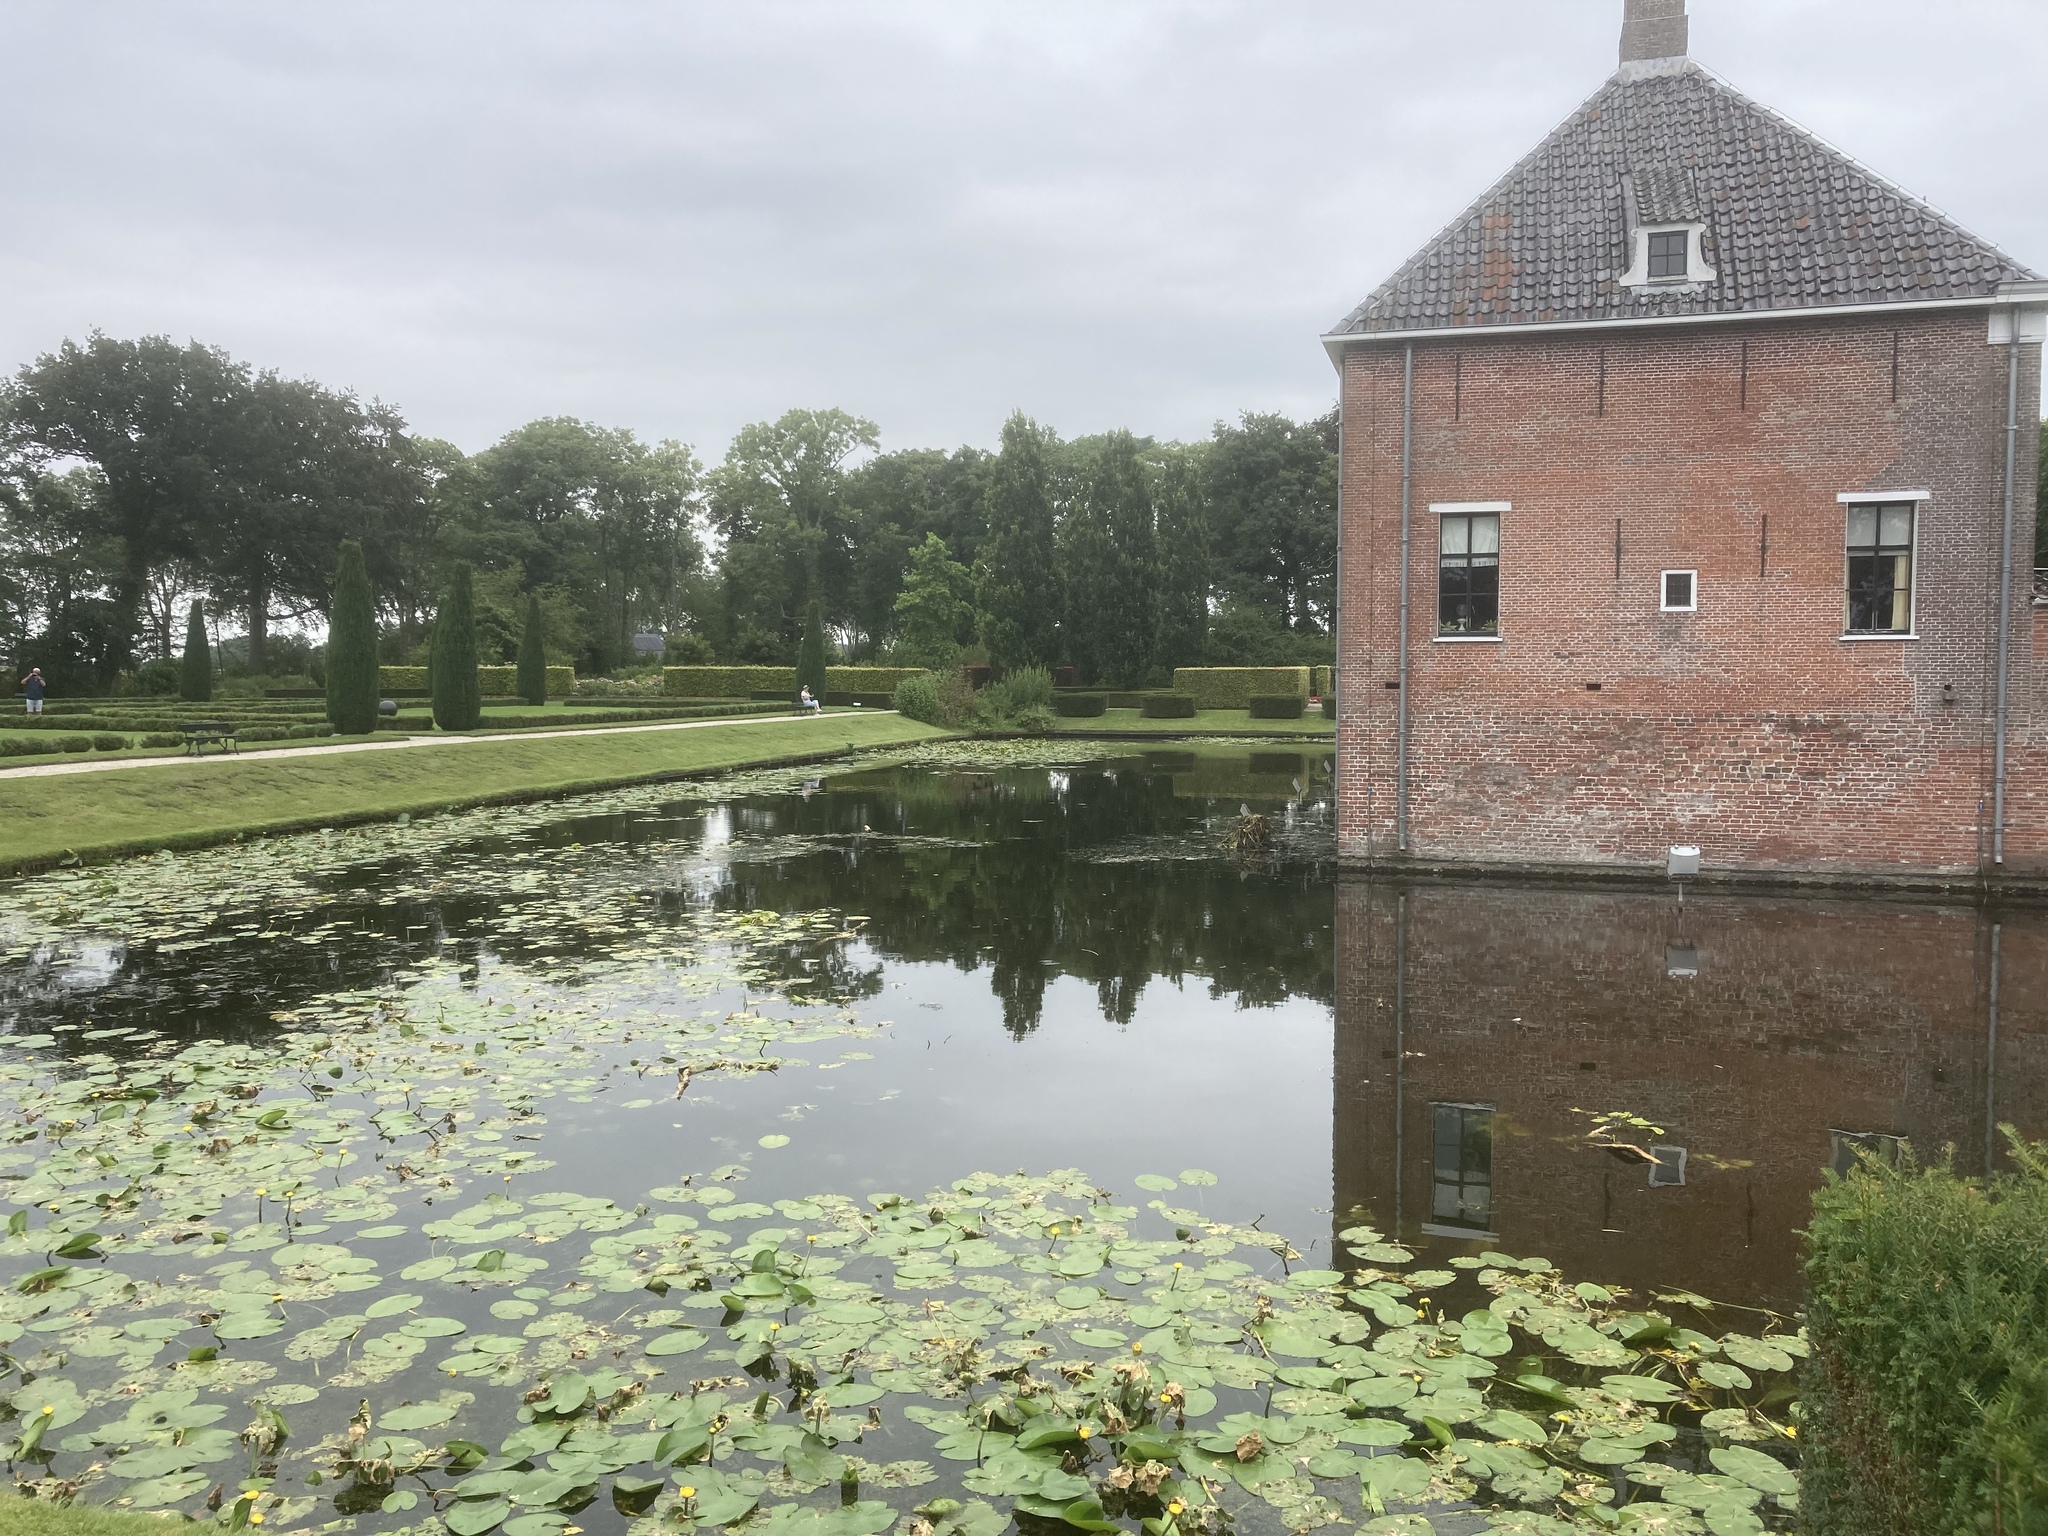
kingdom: Plantae
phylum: Tracheophyta
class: Magnoliopsida
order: Nymphaeales
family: Nymphaeaceae
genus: Nuphar
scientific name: Nuphar lutea
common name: Yellow water-lily
